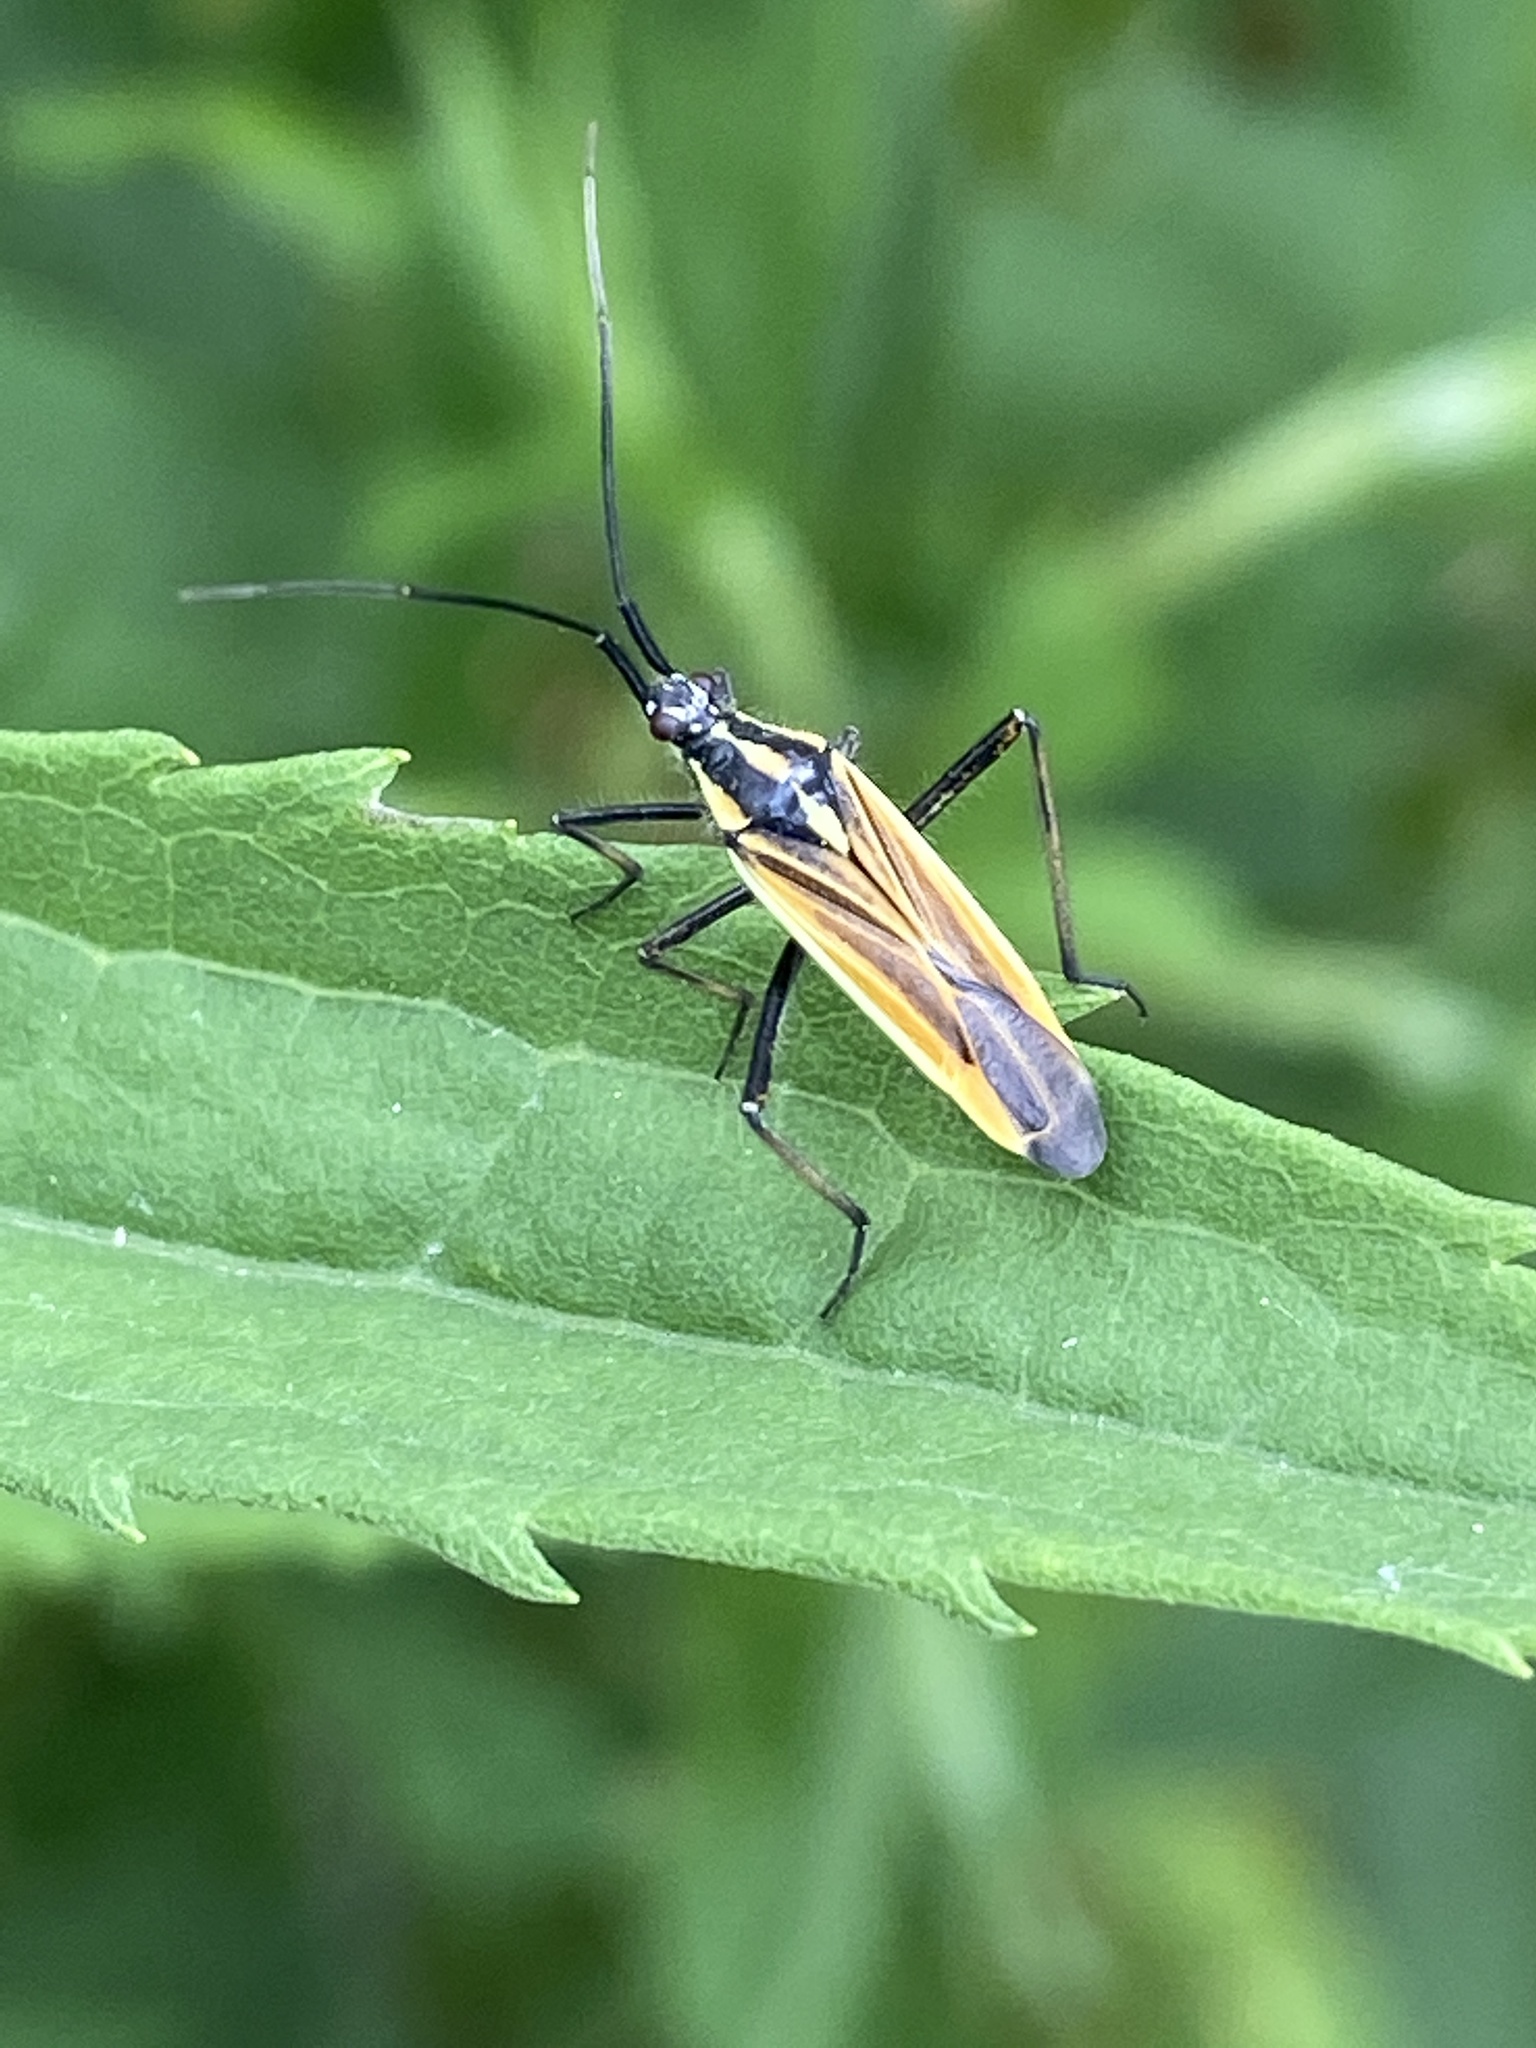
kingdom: Animalia
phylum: Arthropoda
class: Insecta
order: Hemiptera
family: Miridae
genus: Leptopterna
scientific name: Leptopterna dolabrata
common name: Meadow plant bug
